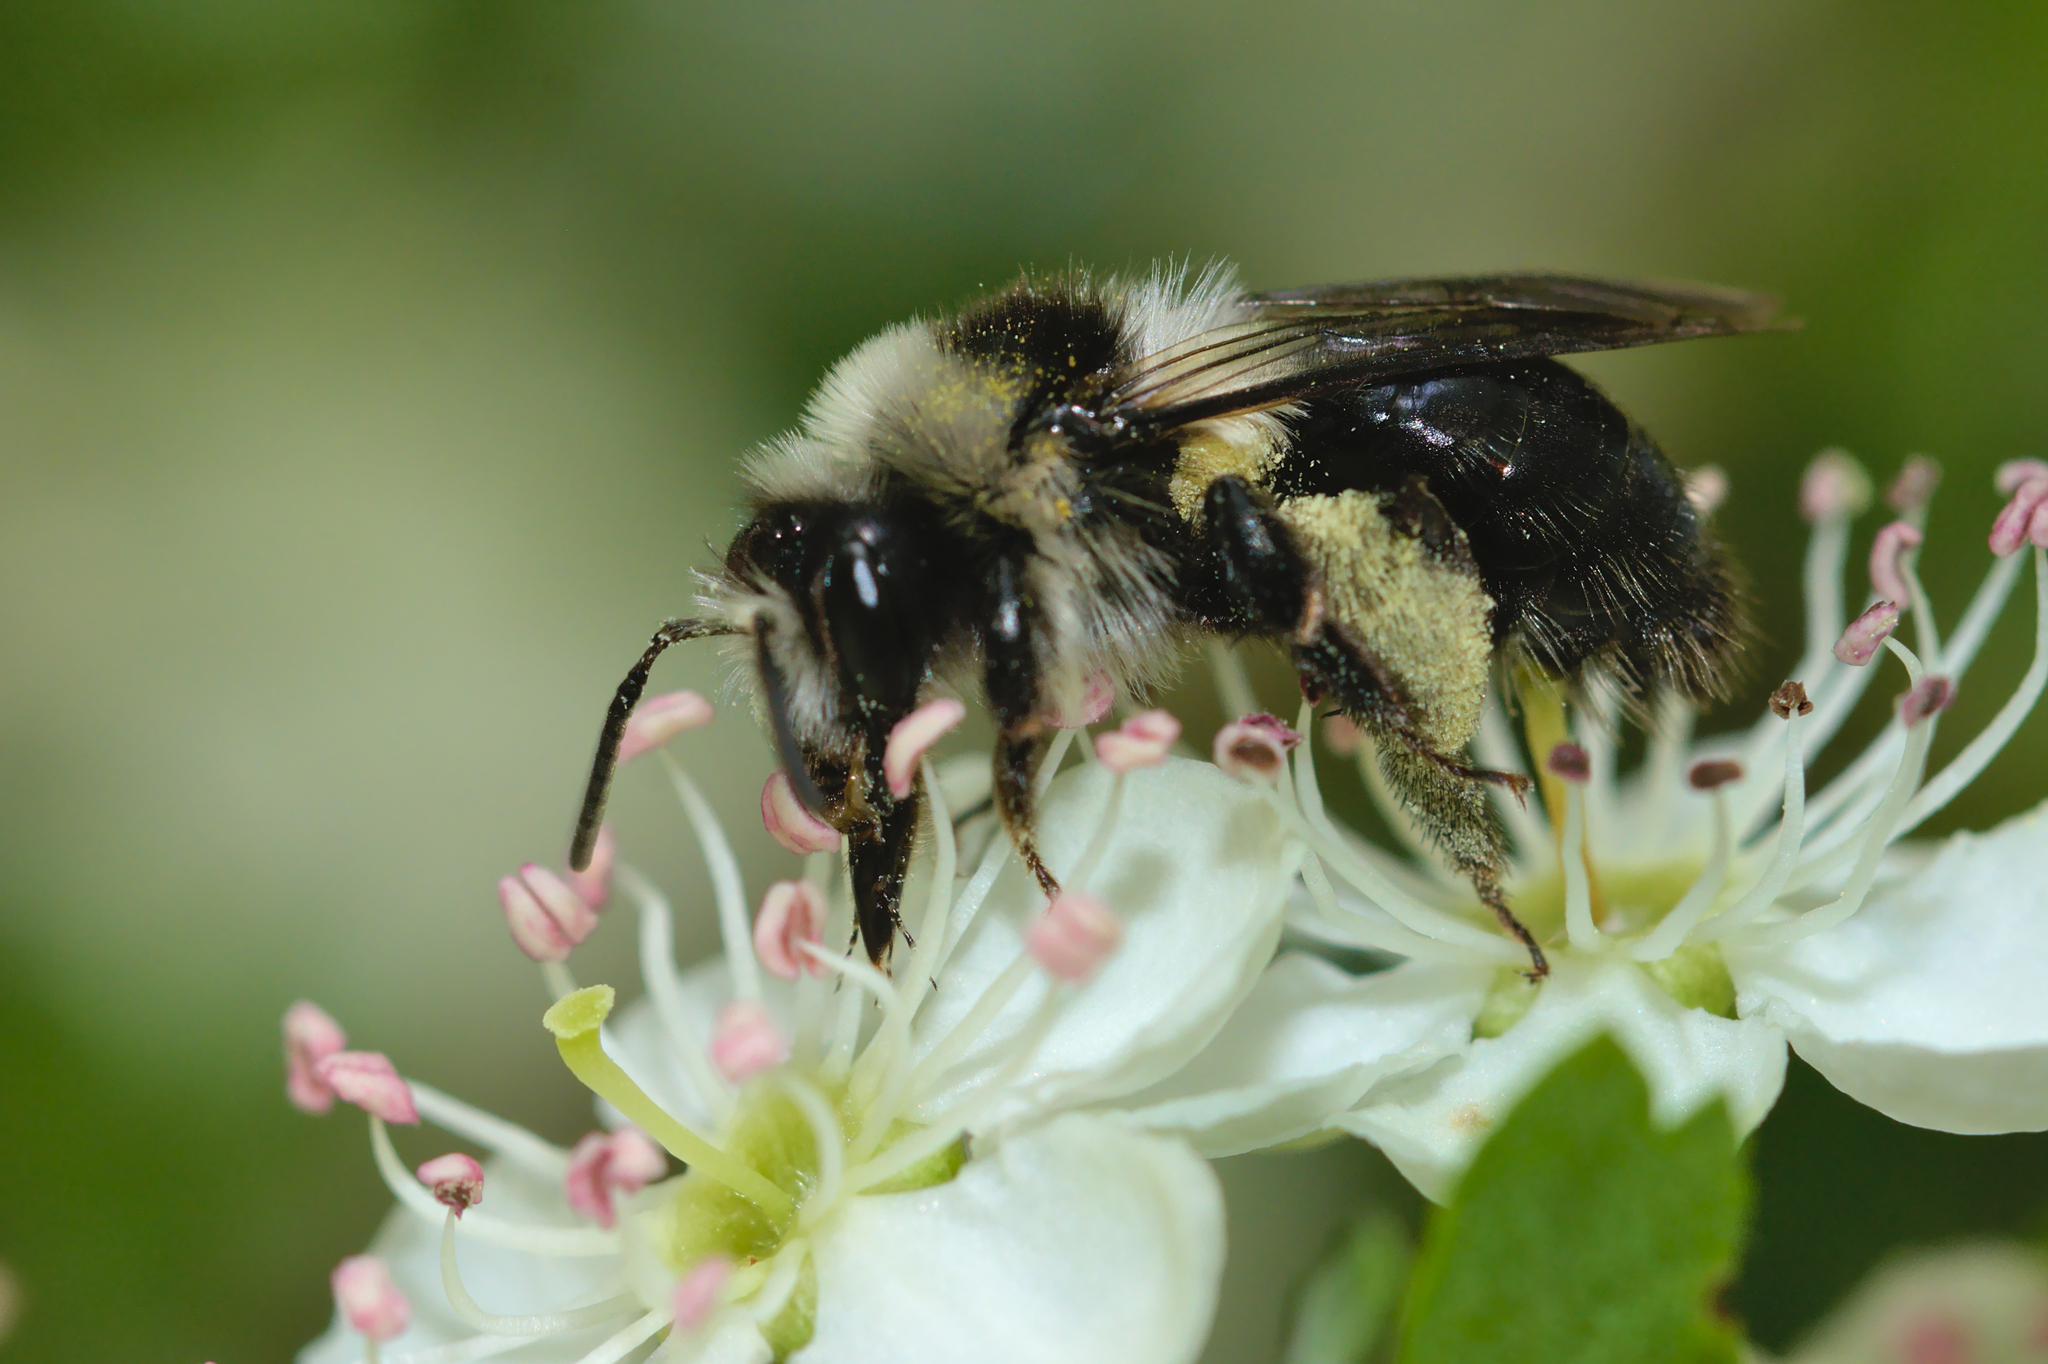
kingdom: Animalia
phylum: Arthropoda
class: Insecta
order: Hymenoptera
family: Andrenidae
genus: Andrena
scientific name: Andrena cineraria
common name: Ashy mining bee
